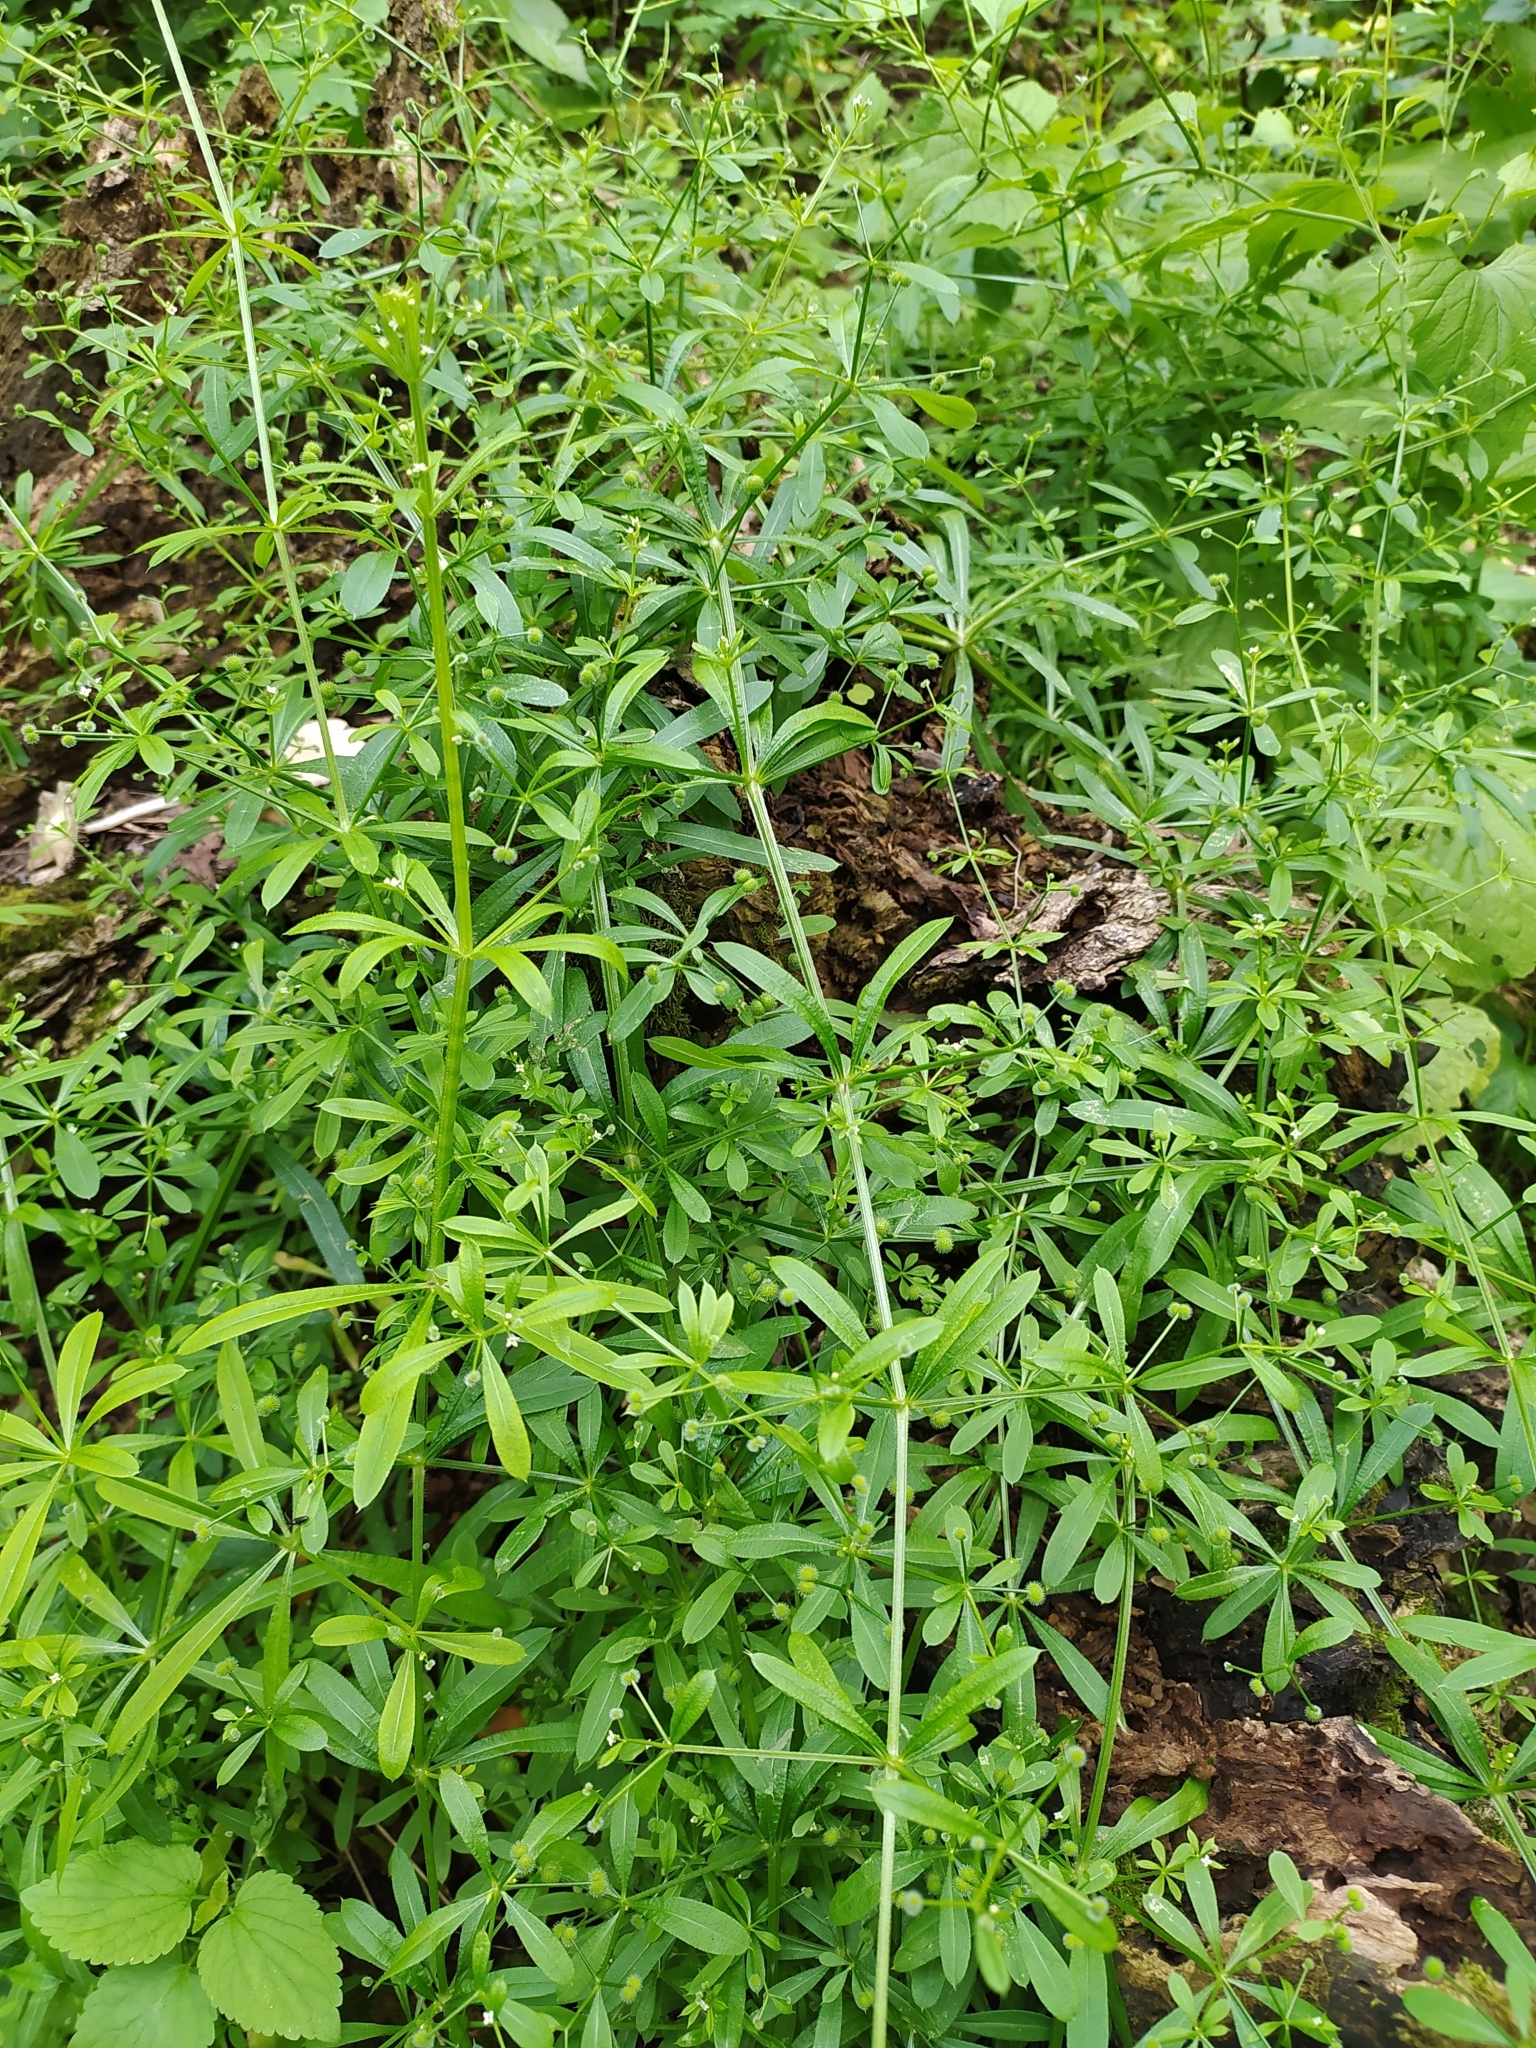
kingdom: Plantae
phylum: Tracheophyta
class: Magnoliopsida
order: Gentianales
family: Rubiaceae
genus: Galium
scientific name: Galium aparine
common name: Cleavers
